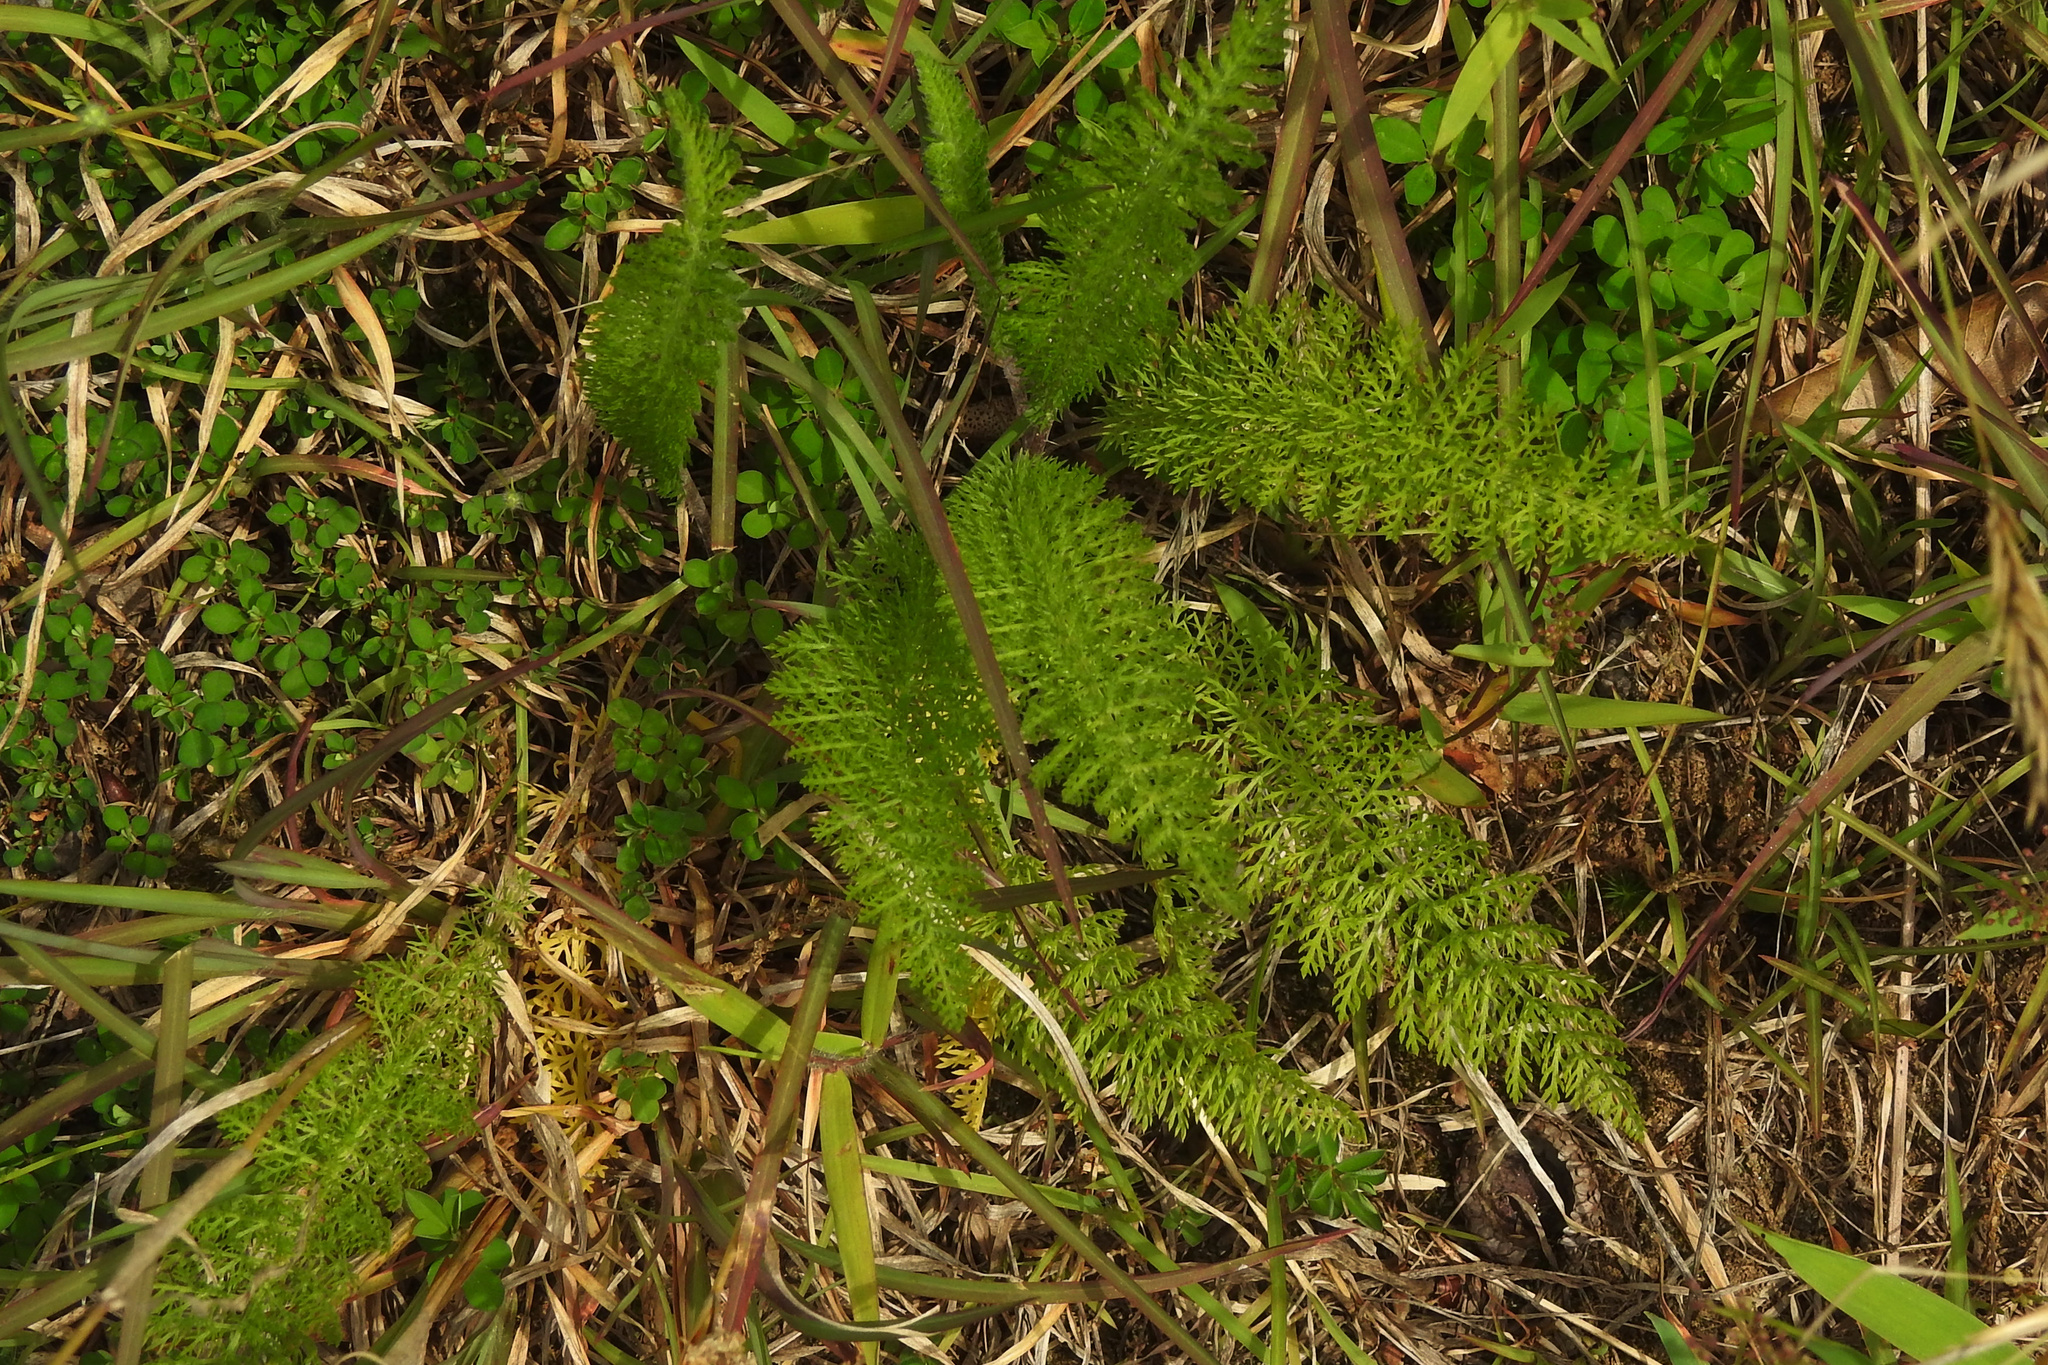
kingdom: Plantae
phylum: Tracheophyta
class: Magnoliopsida
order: Asterales
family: Asteraceae
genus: Achillea
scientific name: Achillea millefolium
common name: Yarrow
